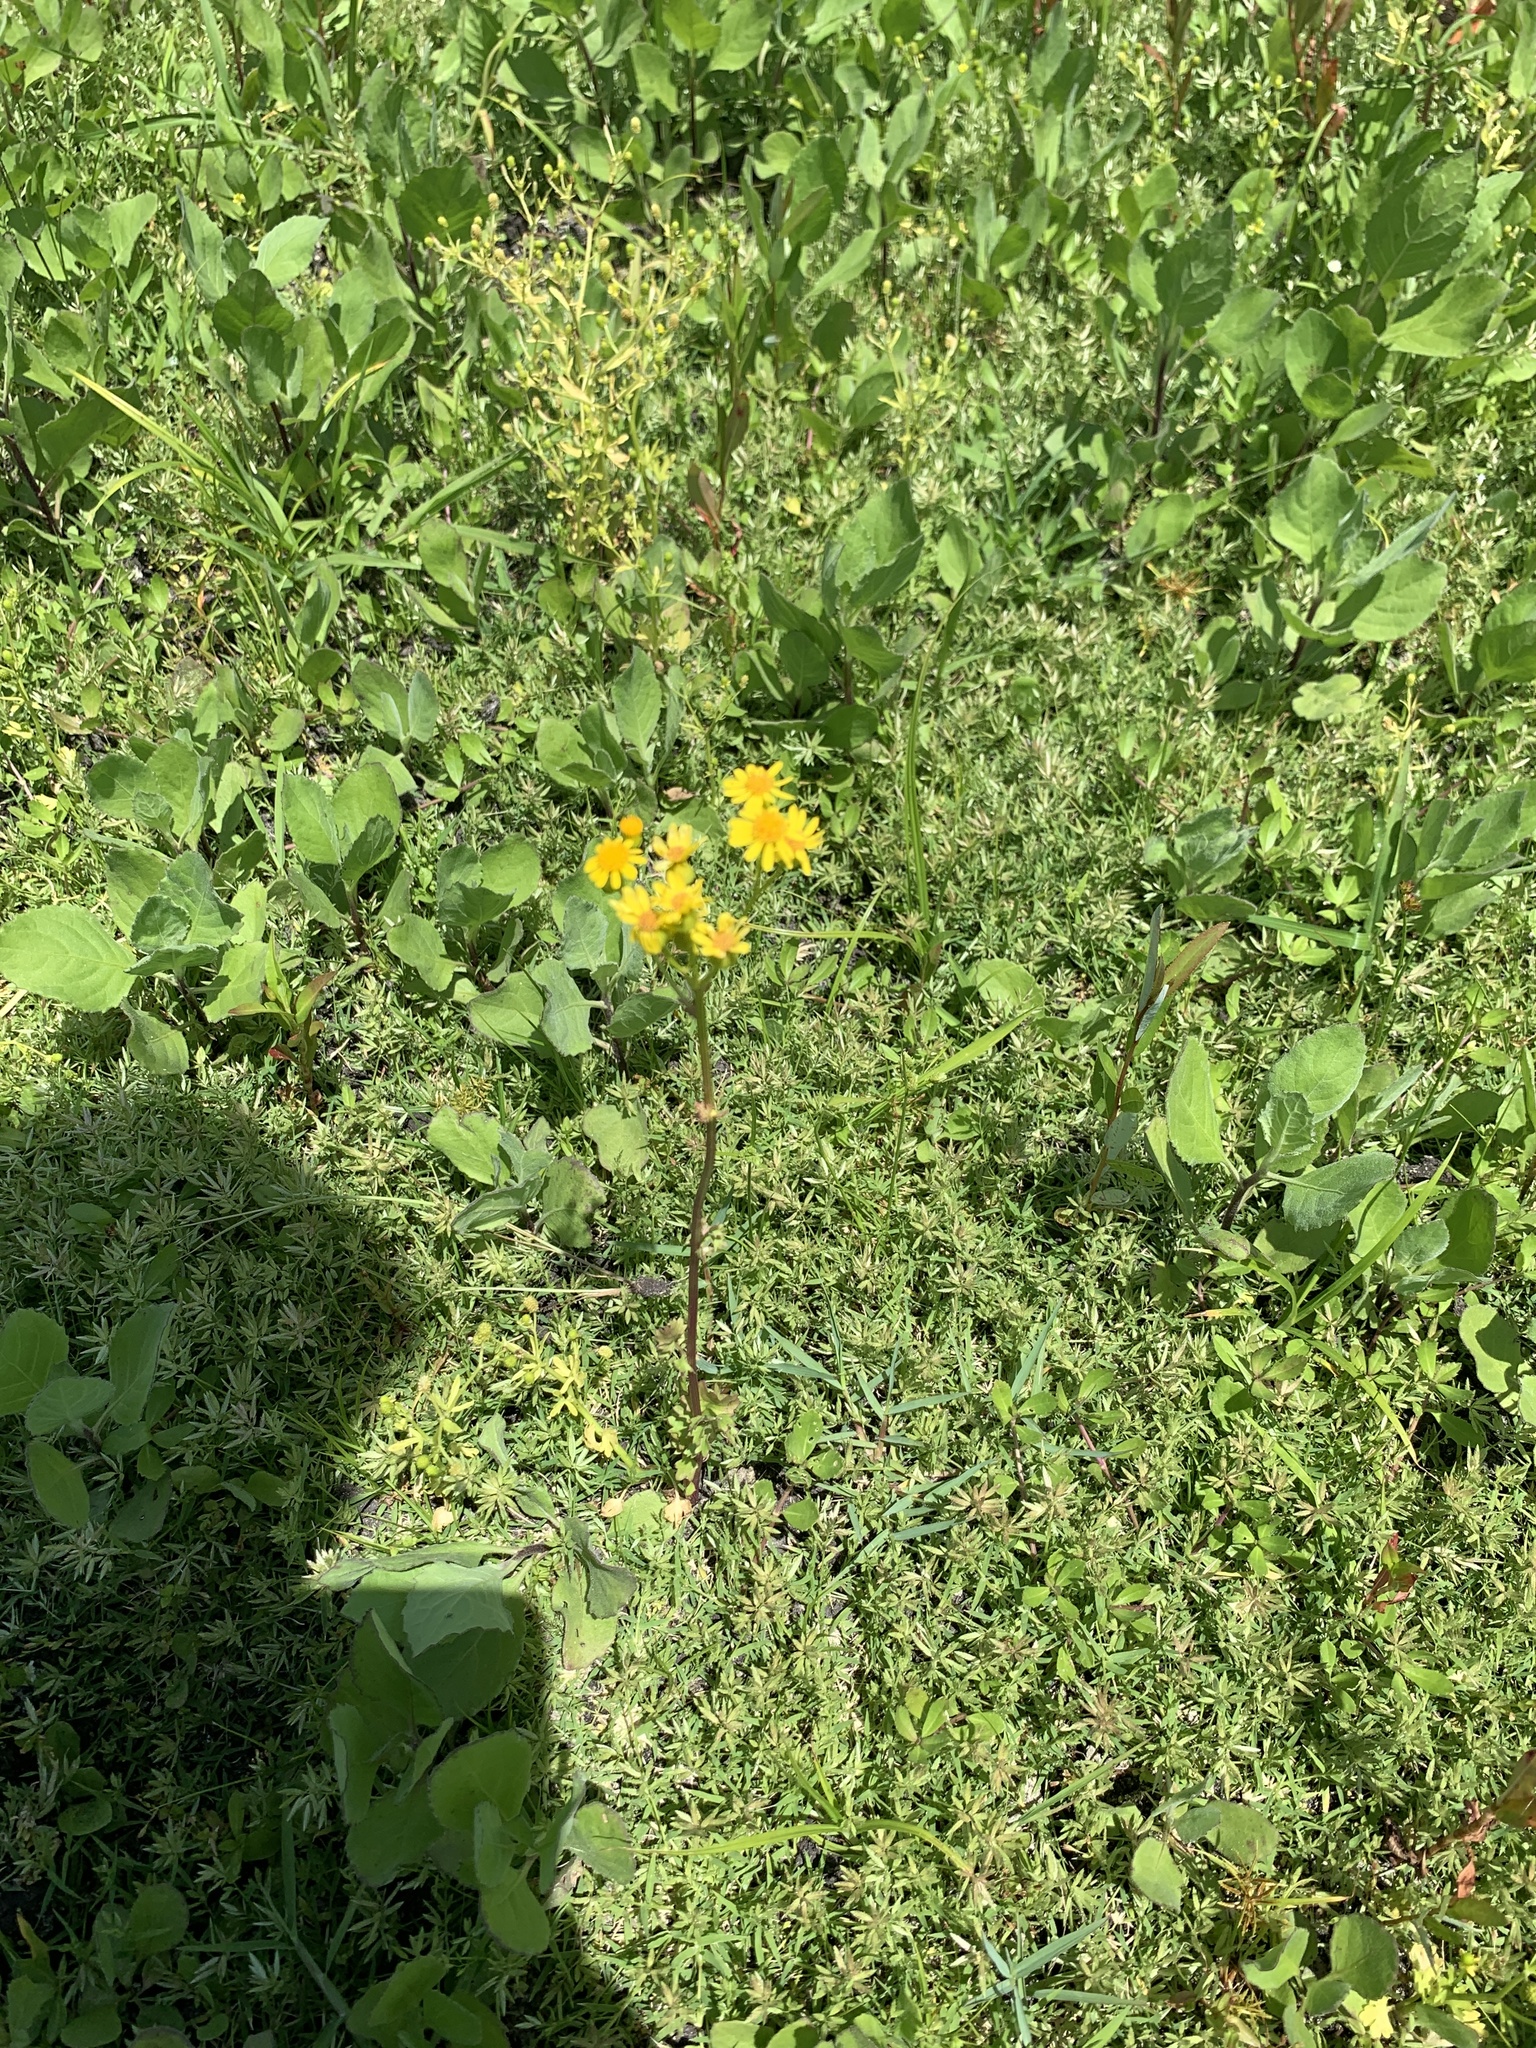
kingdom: Plantae
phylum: Tracheophyta
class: Magnoliopsida
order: Asterales
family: Asteraceae
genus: Packera
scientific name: Packera glabella
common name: Butterweed
